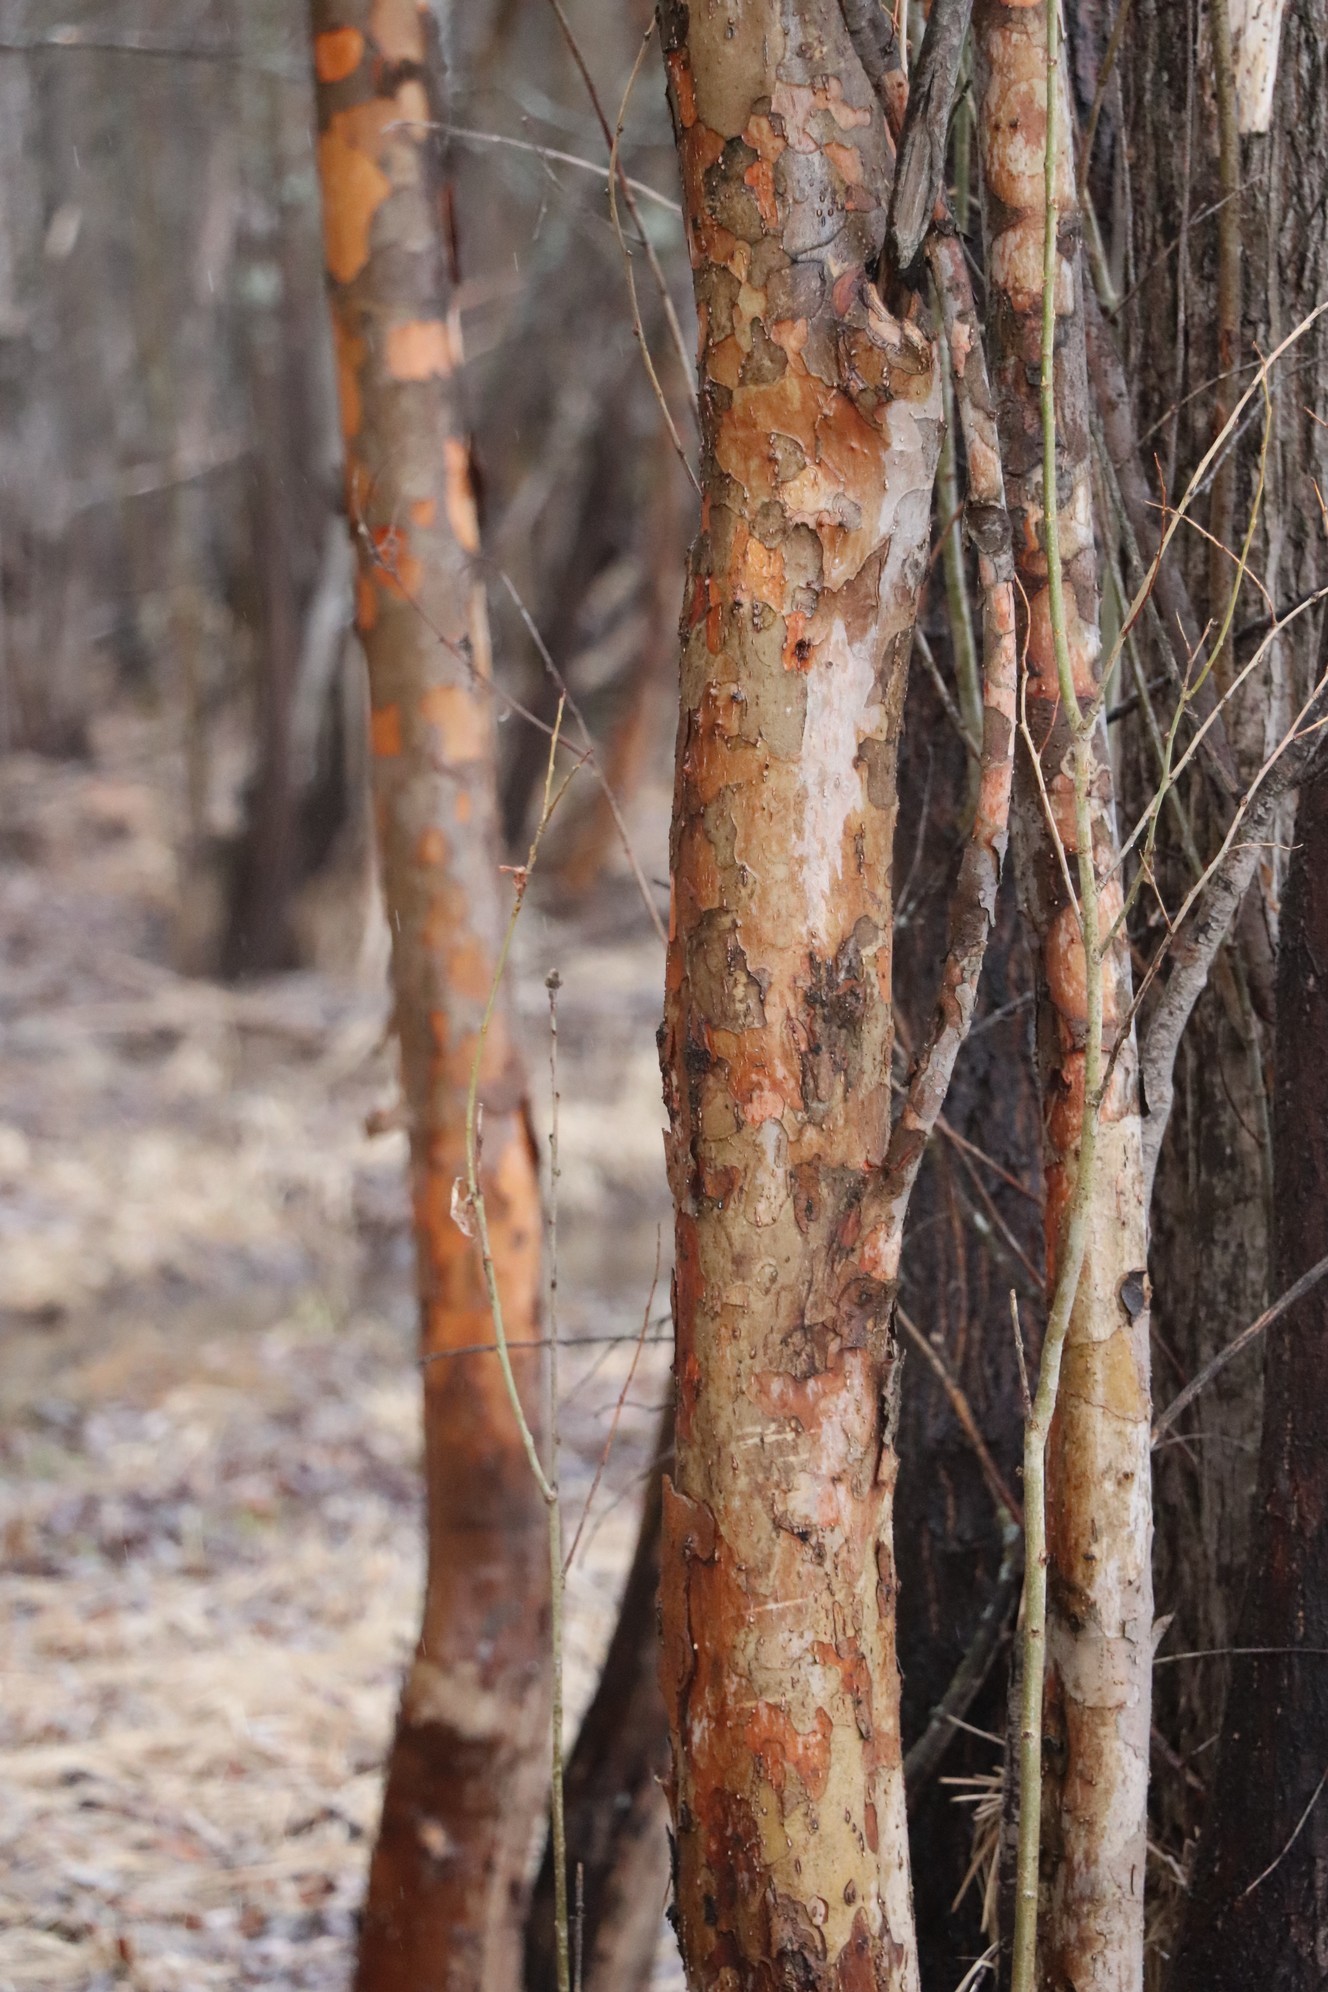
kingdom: Plantae
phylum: Tracheophyta
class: Magnoliopsida
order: Malpighiales
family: Salicaceae
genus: Salix
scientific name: Salix triandra
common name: Almond willow
